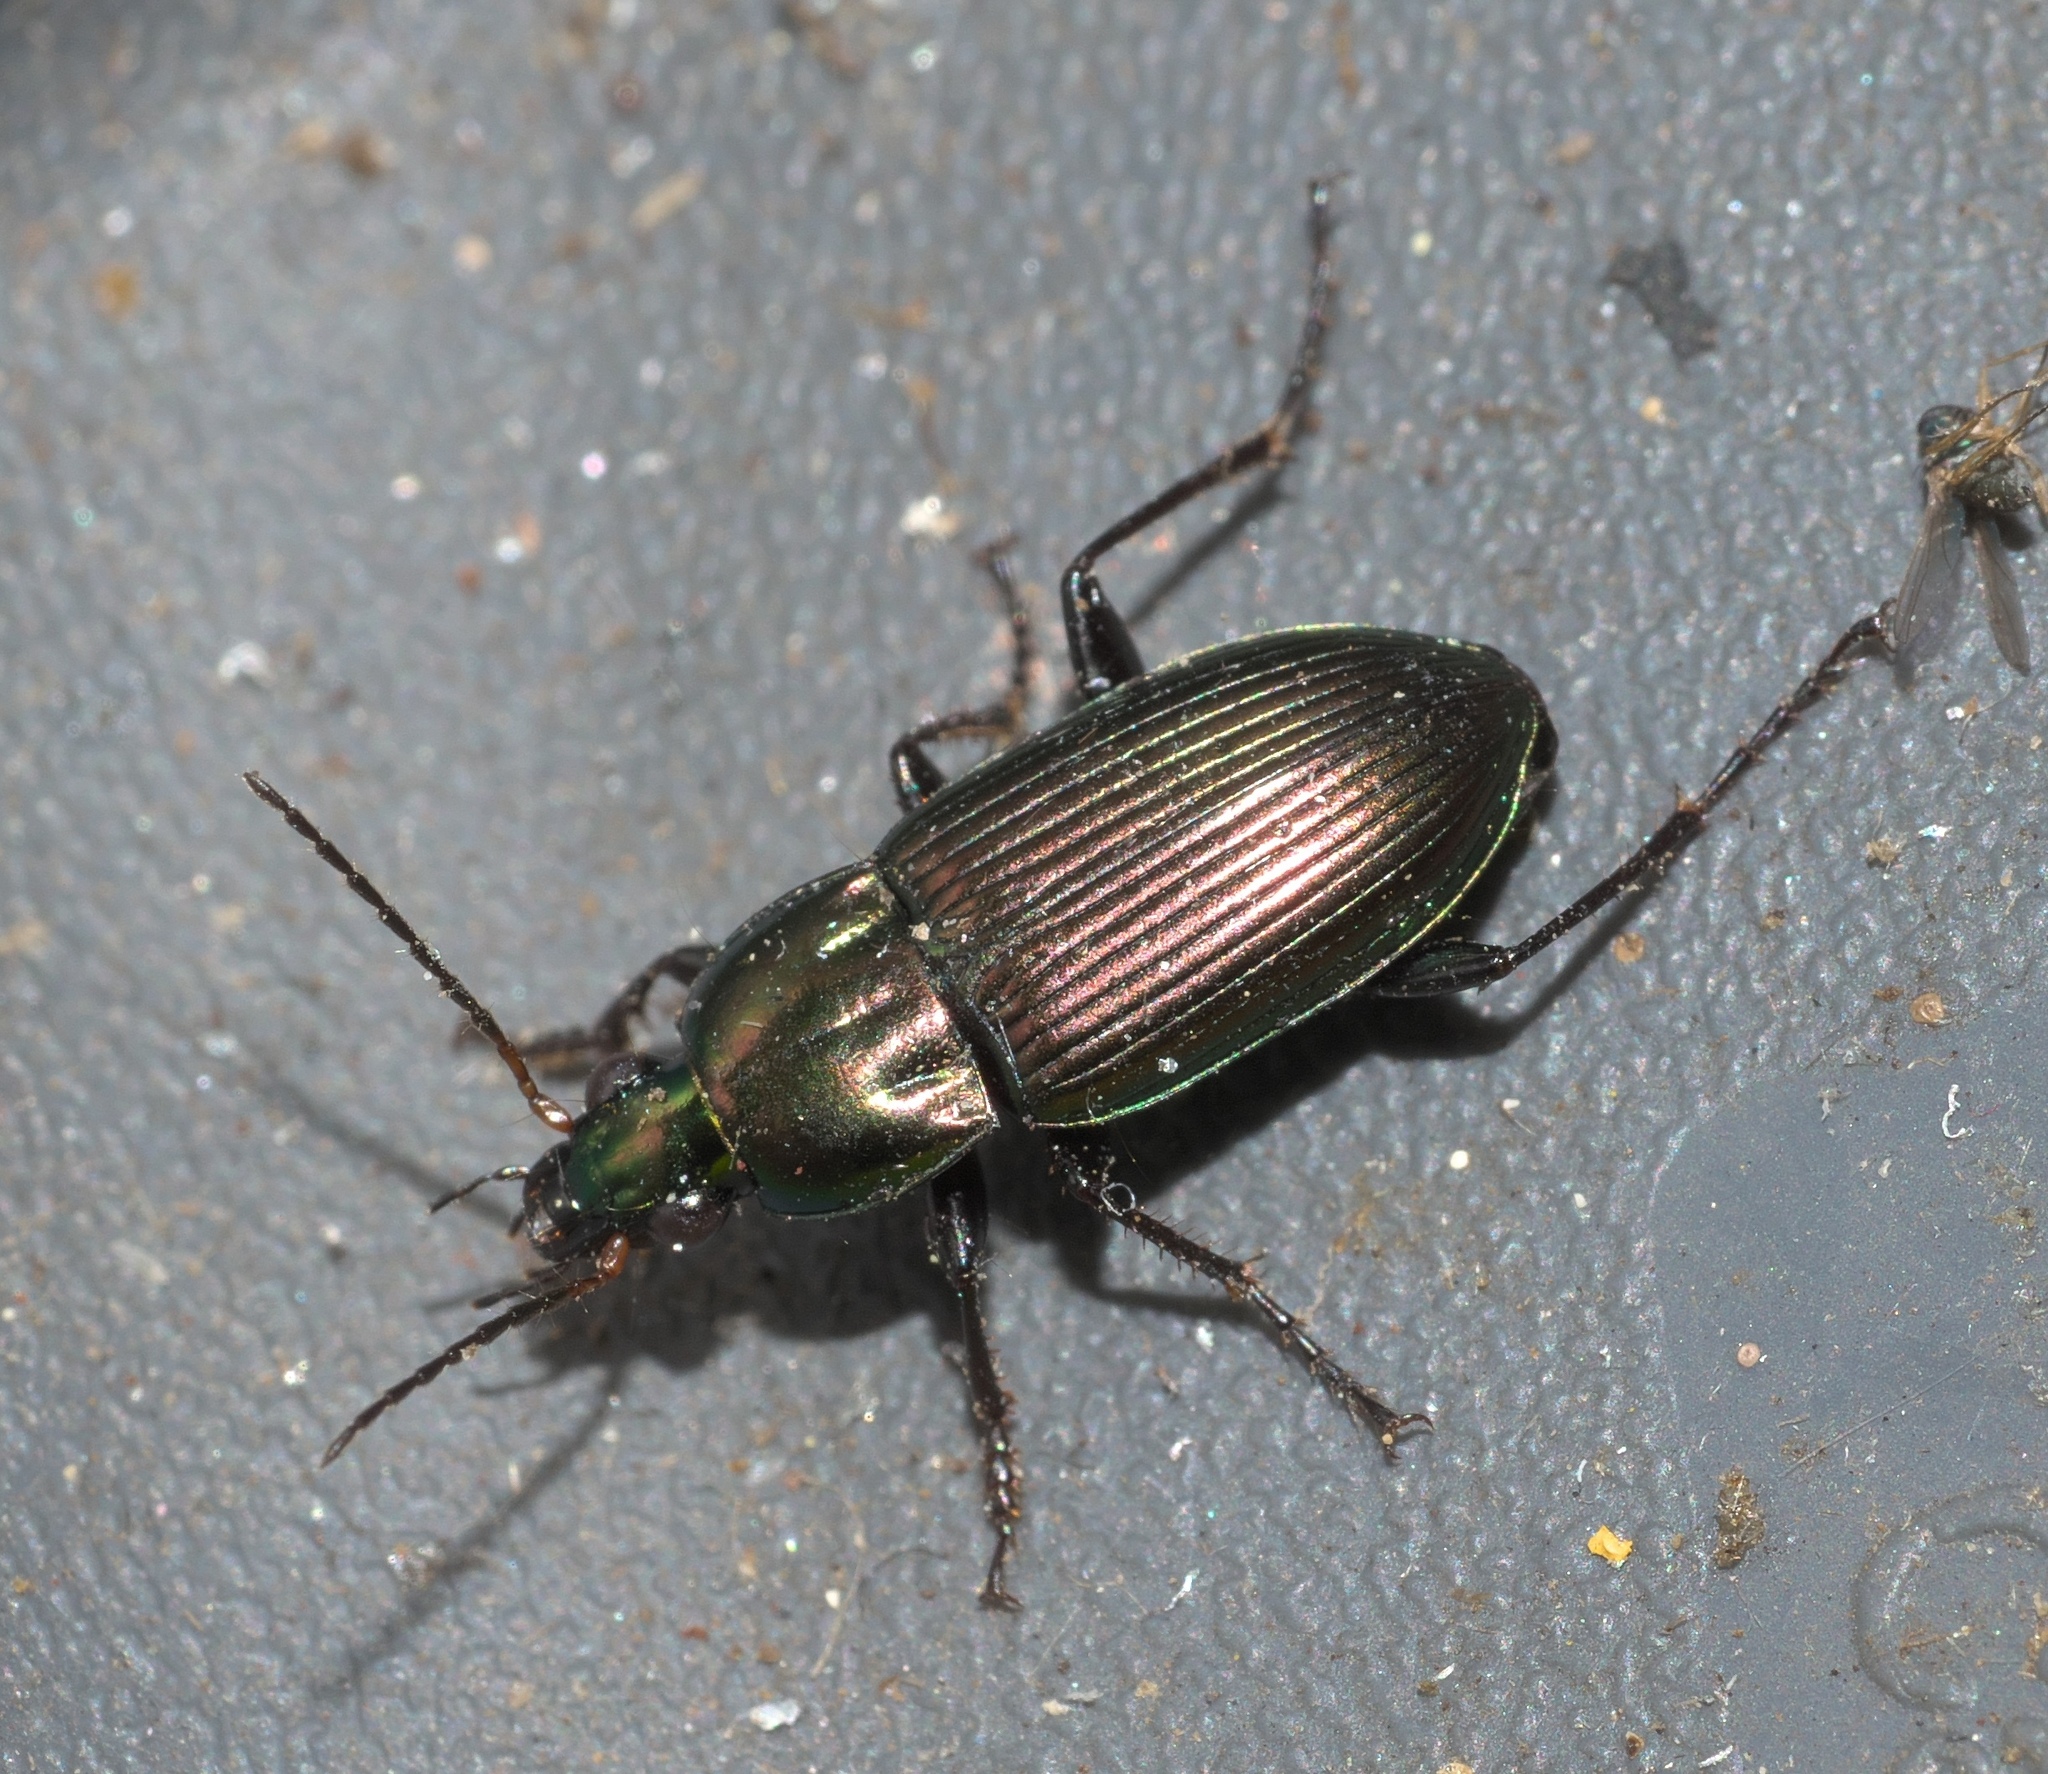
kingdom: Animalia
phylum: Arthropoda
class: Insecta
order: Coleoptera
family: Carabidae
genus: Poecilus
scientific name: Poecilus chalcites
